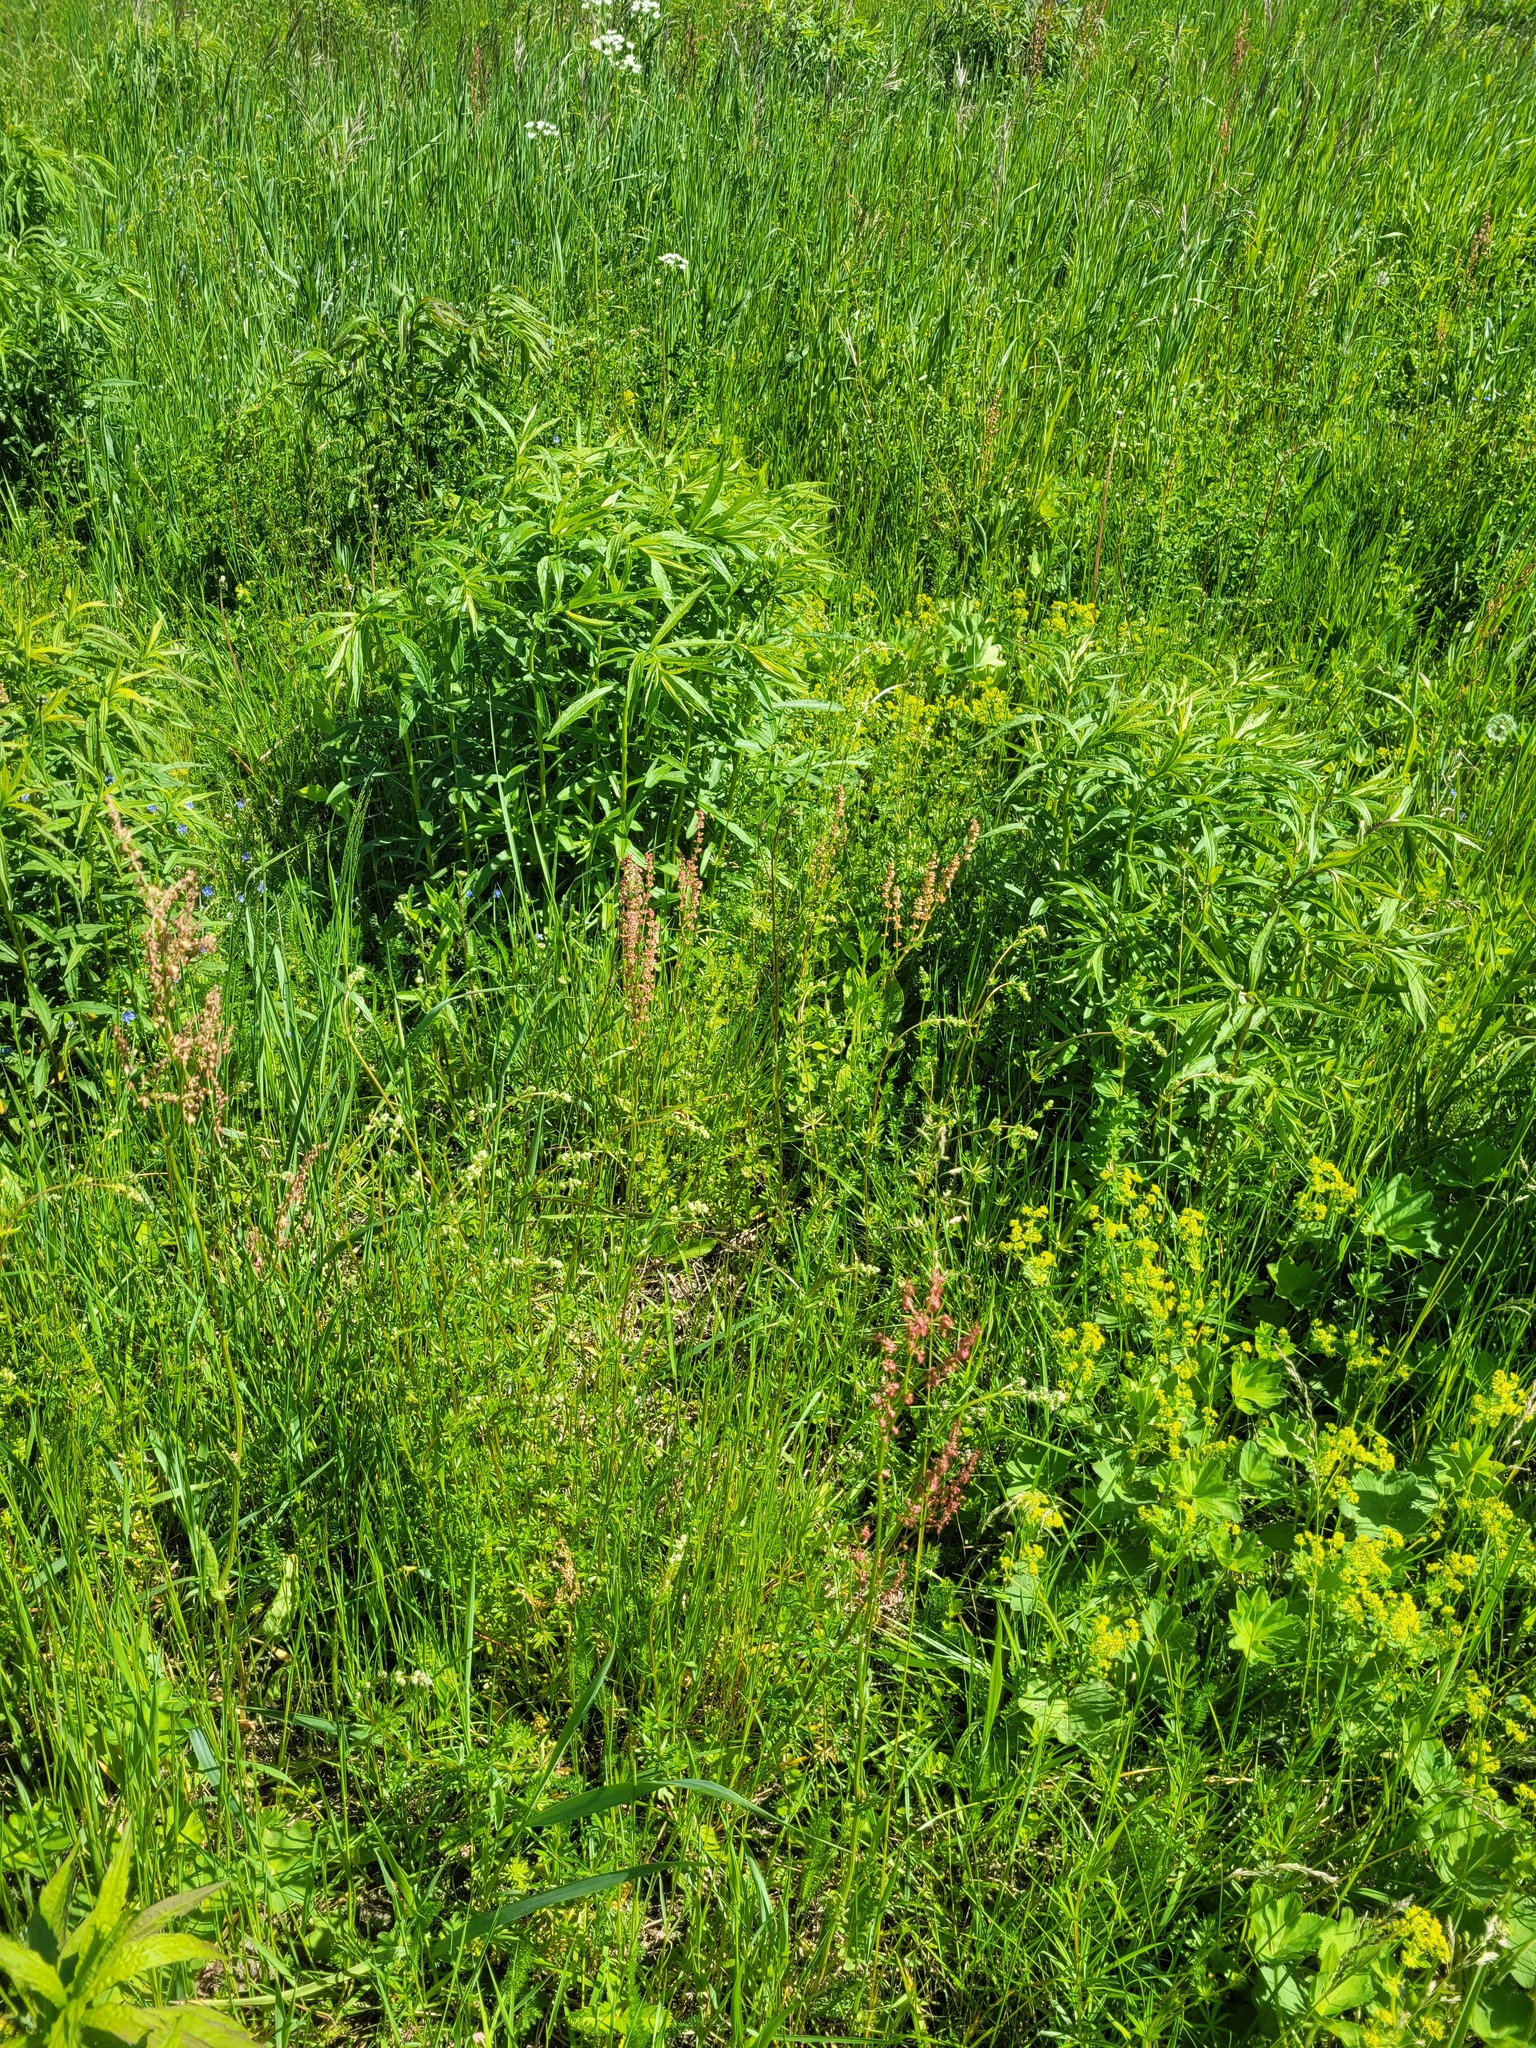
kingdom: Plantae
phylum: Tracheophyta
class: Magnoliopsida
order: Caryophyllales
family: Polygonaceae
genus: Rumex
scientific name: Rumex acetosa
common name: Garden sorrel
